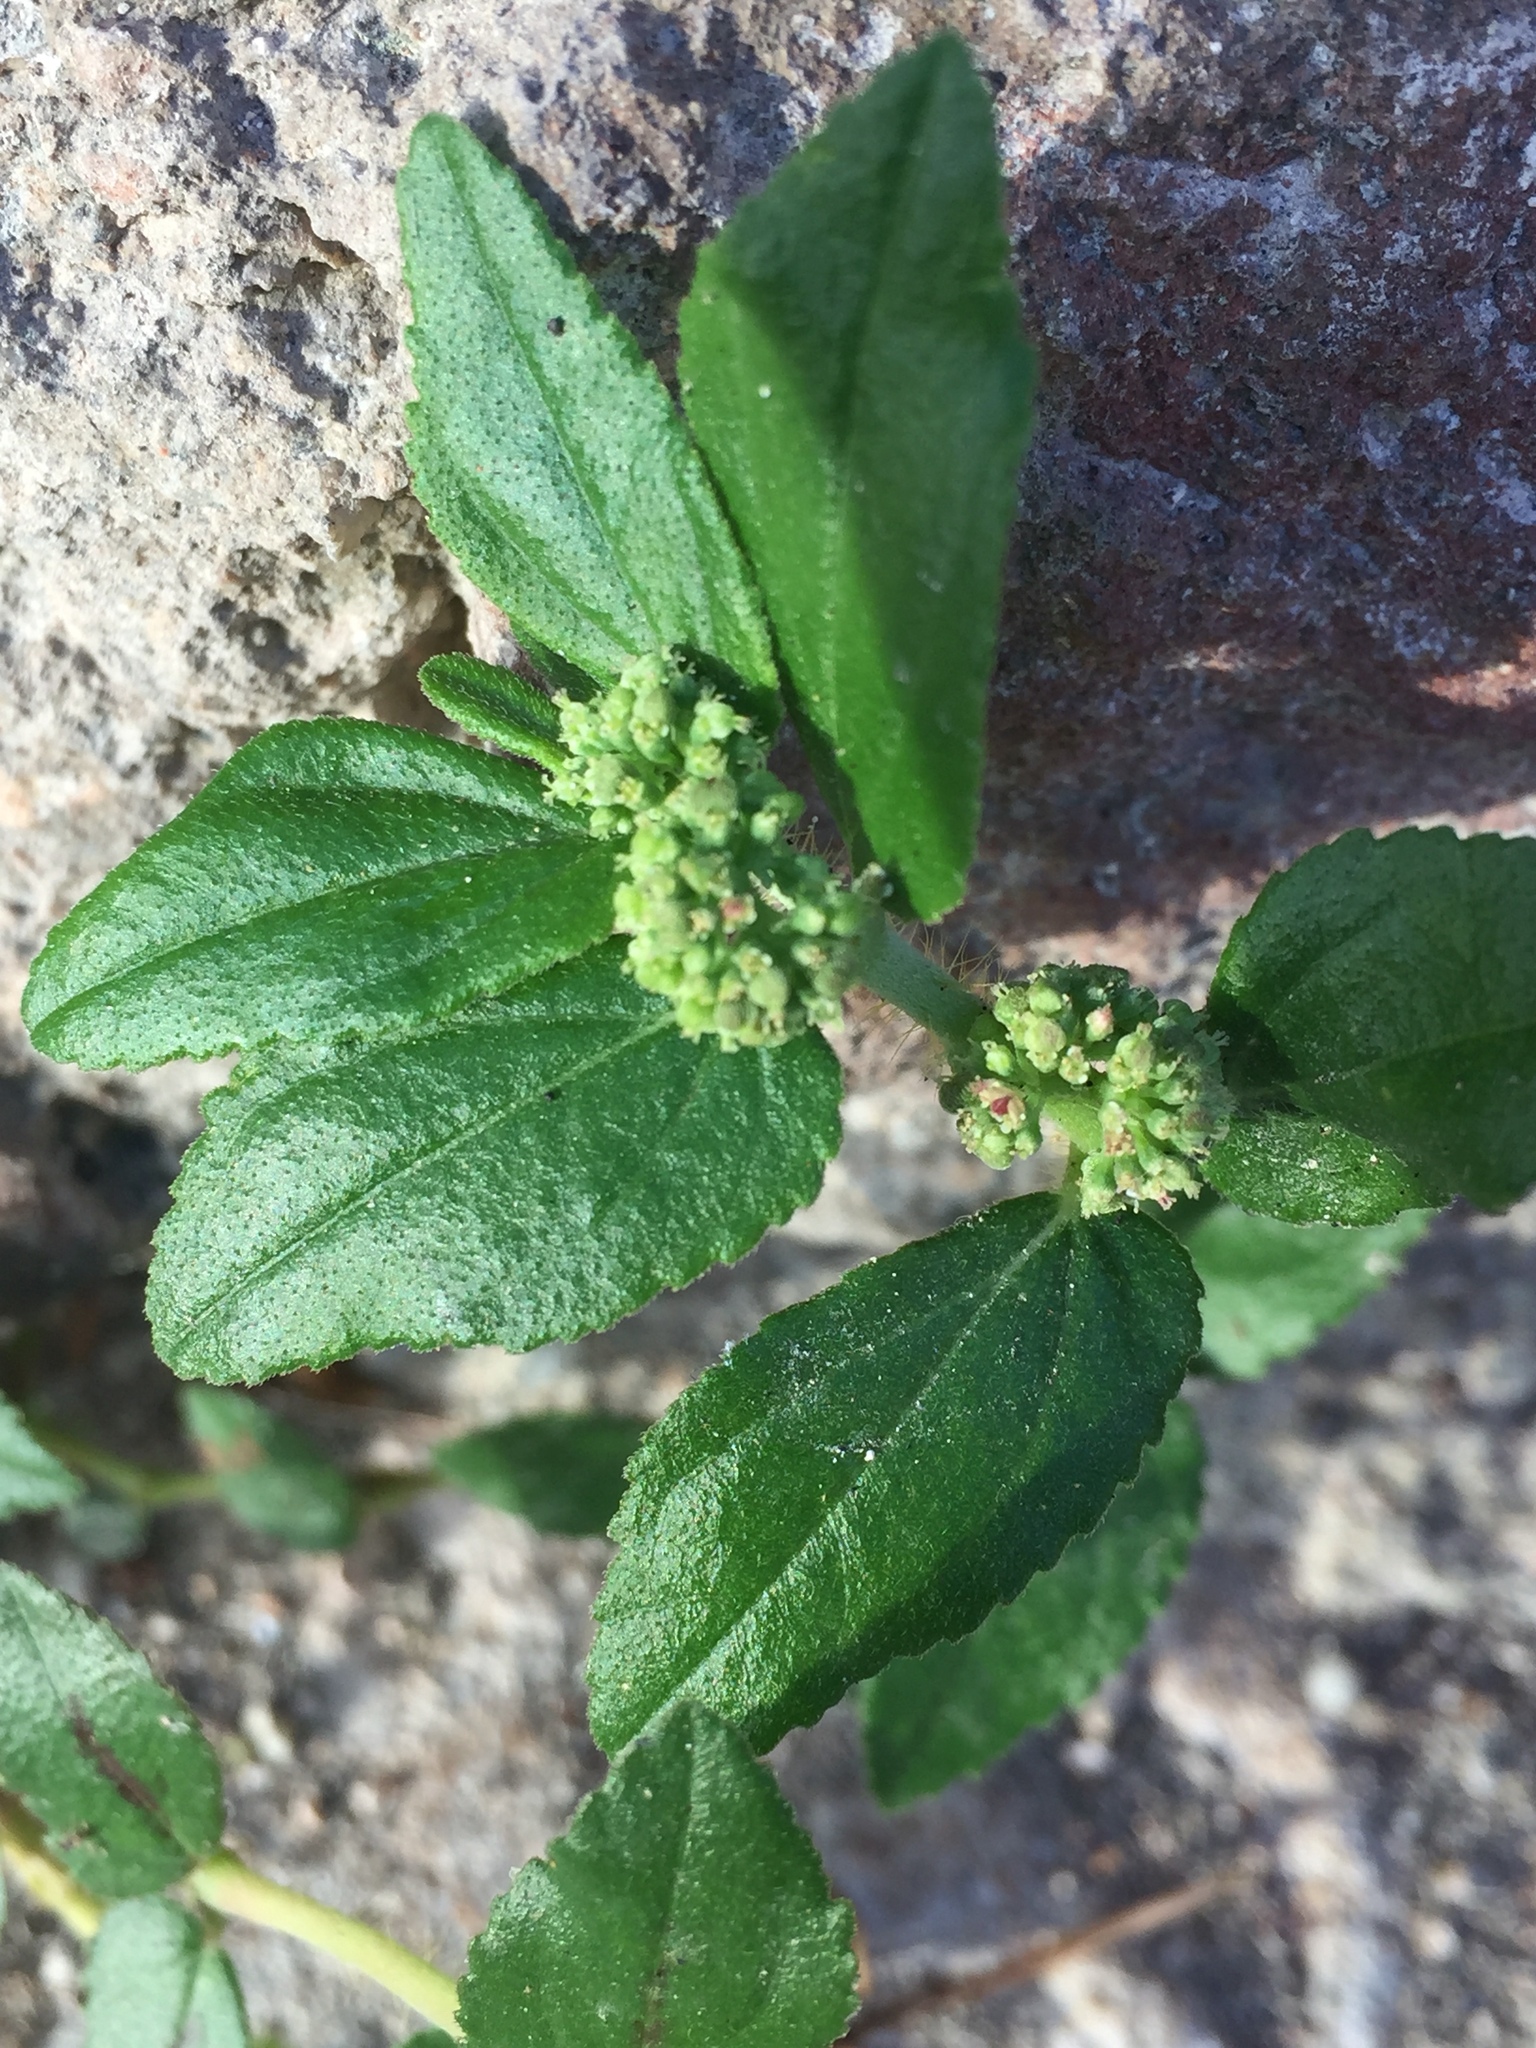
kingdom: Plantae
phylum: Tracheophyta
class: Magnoliopsida
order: Malpighiales
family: Euphorbiaceae
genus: Euphorbia
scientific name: Euphorbia hirta
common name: Pillpod sandmat
